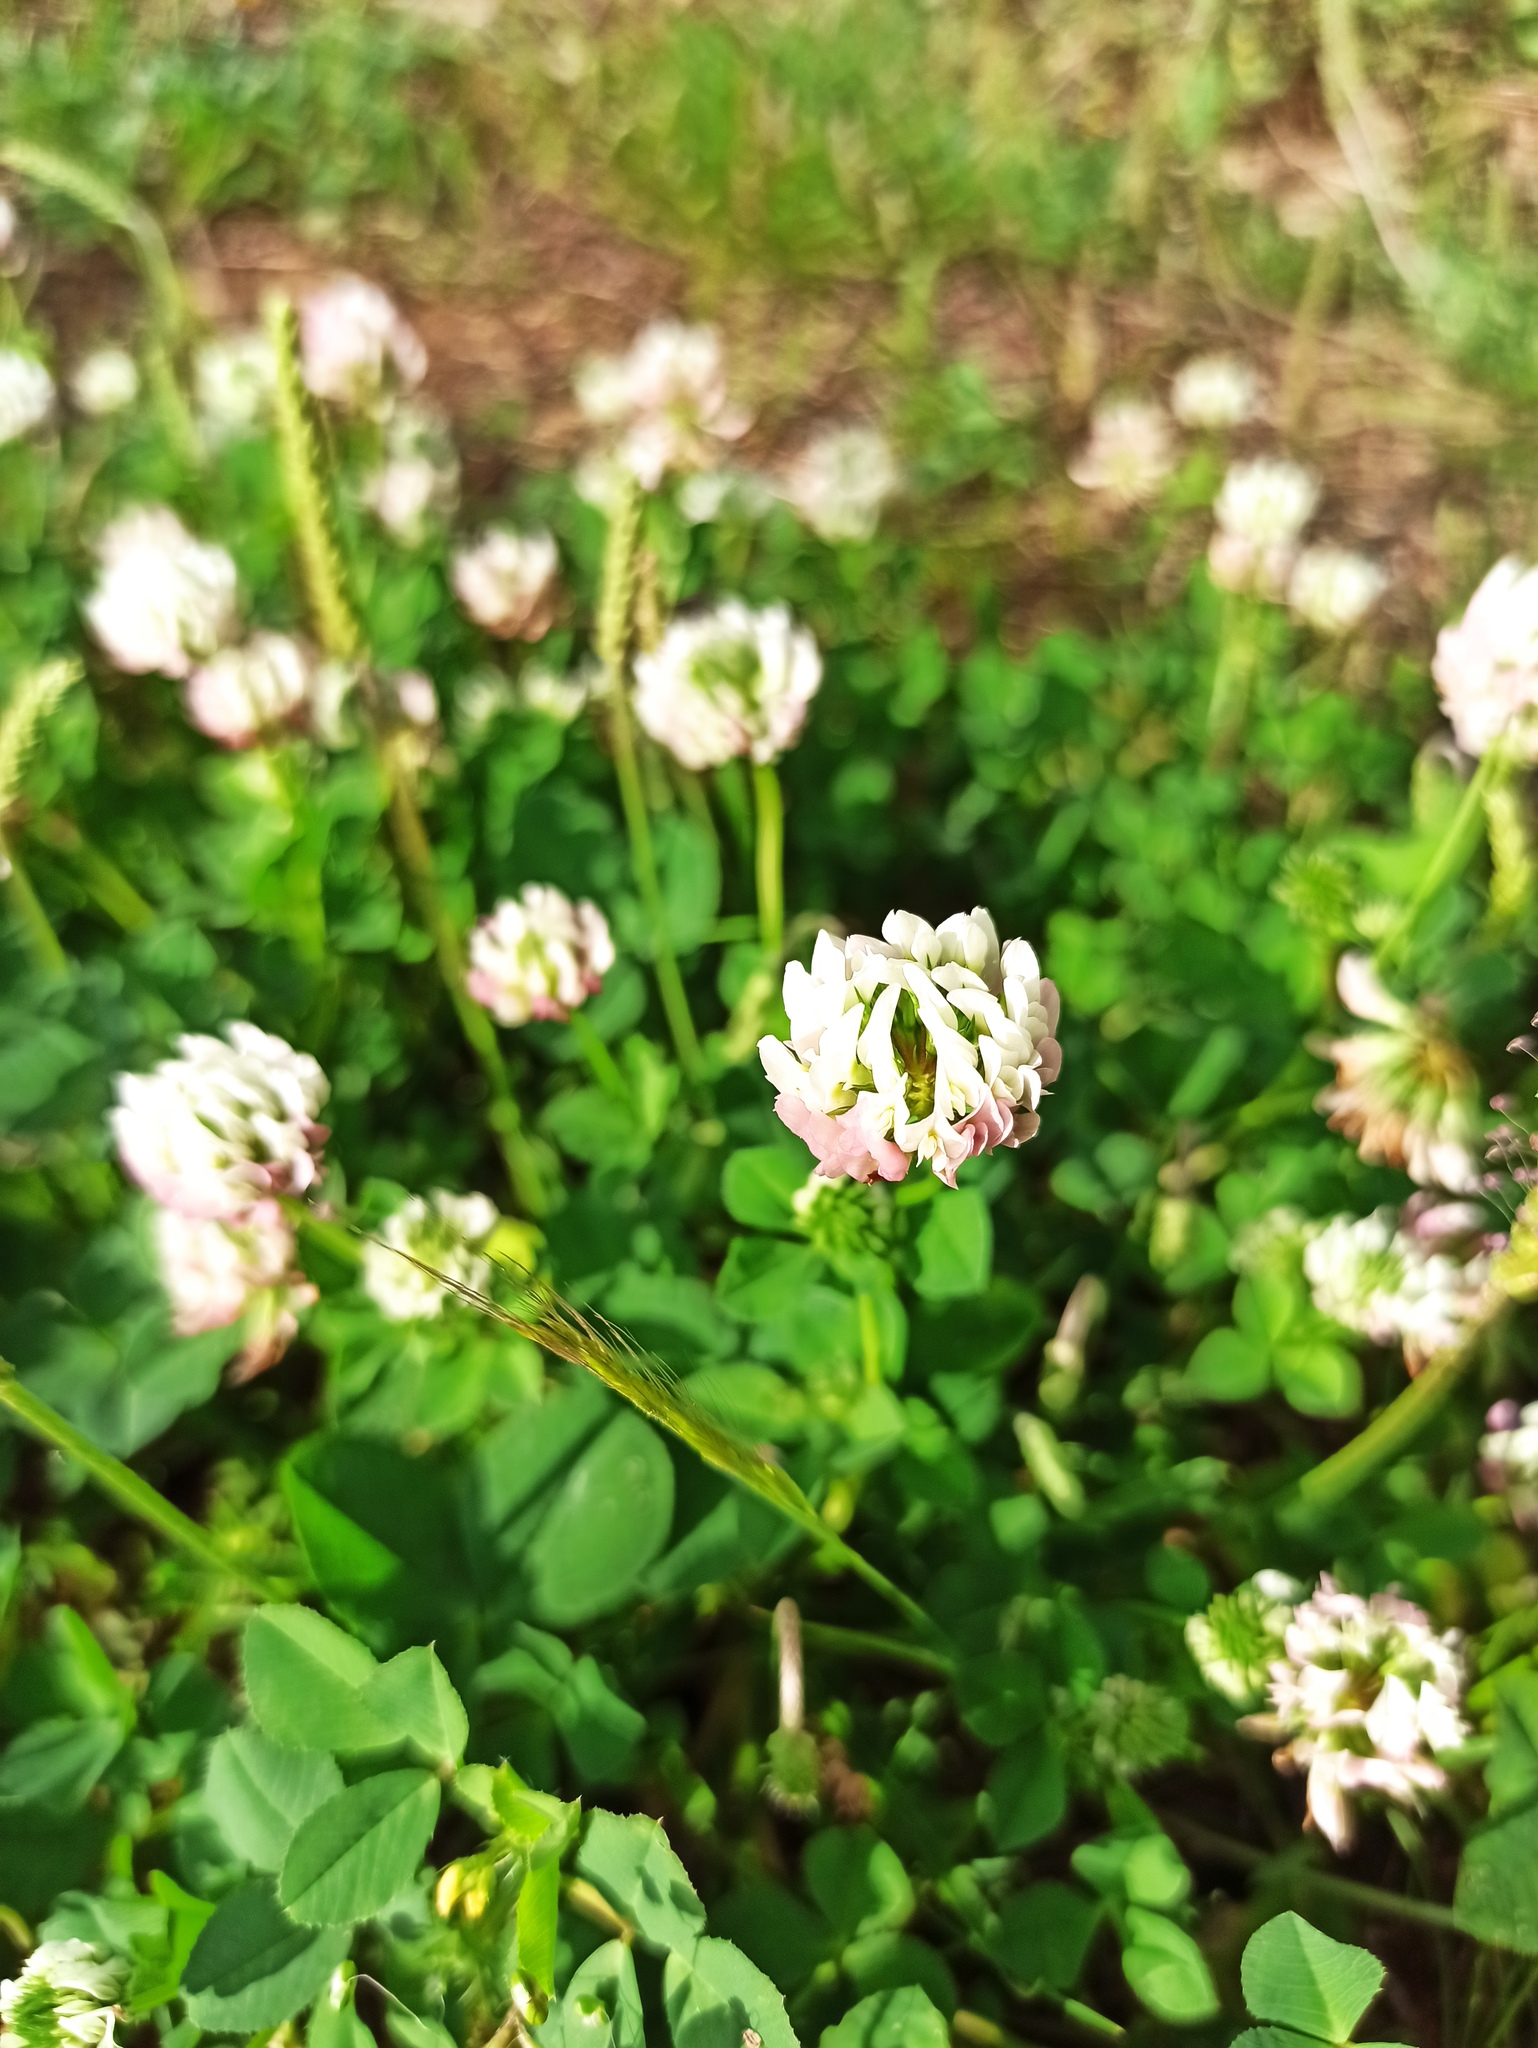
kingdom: Plantae
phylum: Tracheophyta
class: Magnoliopsida
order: Fabales
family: Fabaceae
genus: Trifolium
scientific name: Trifolium nigrescens
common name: Small white clover
